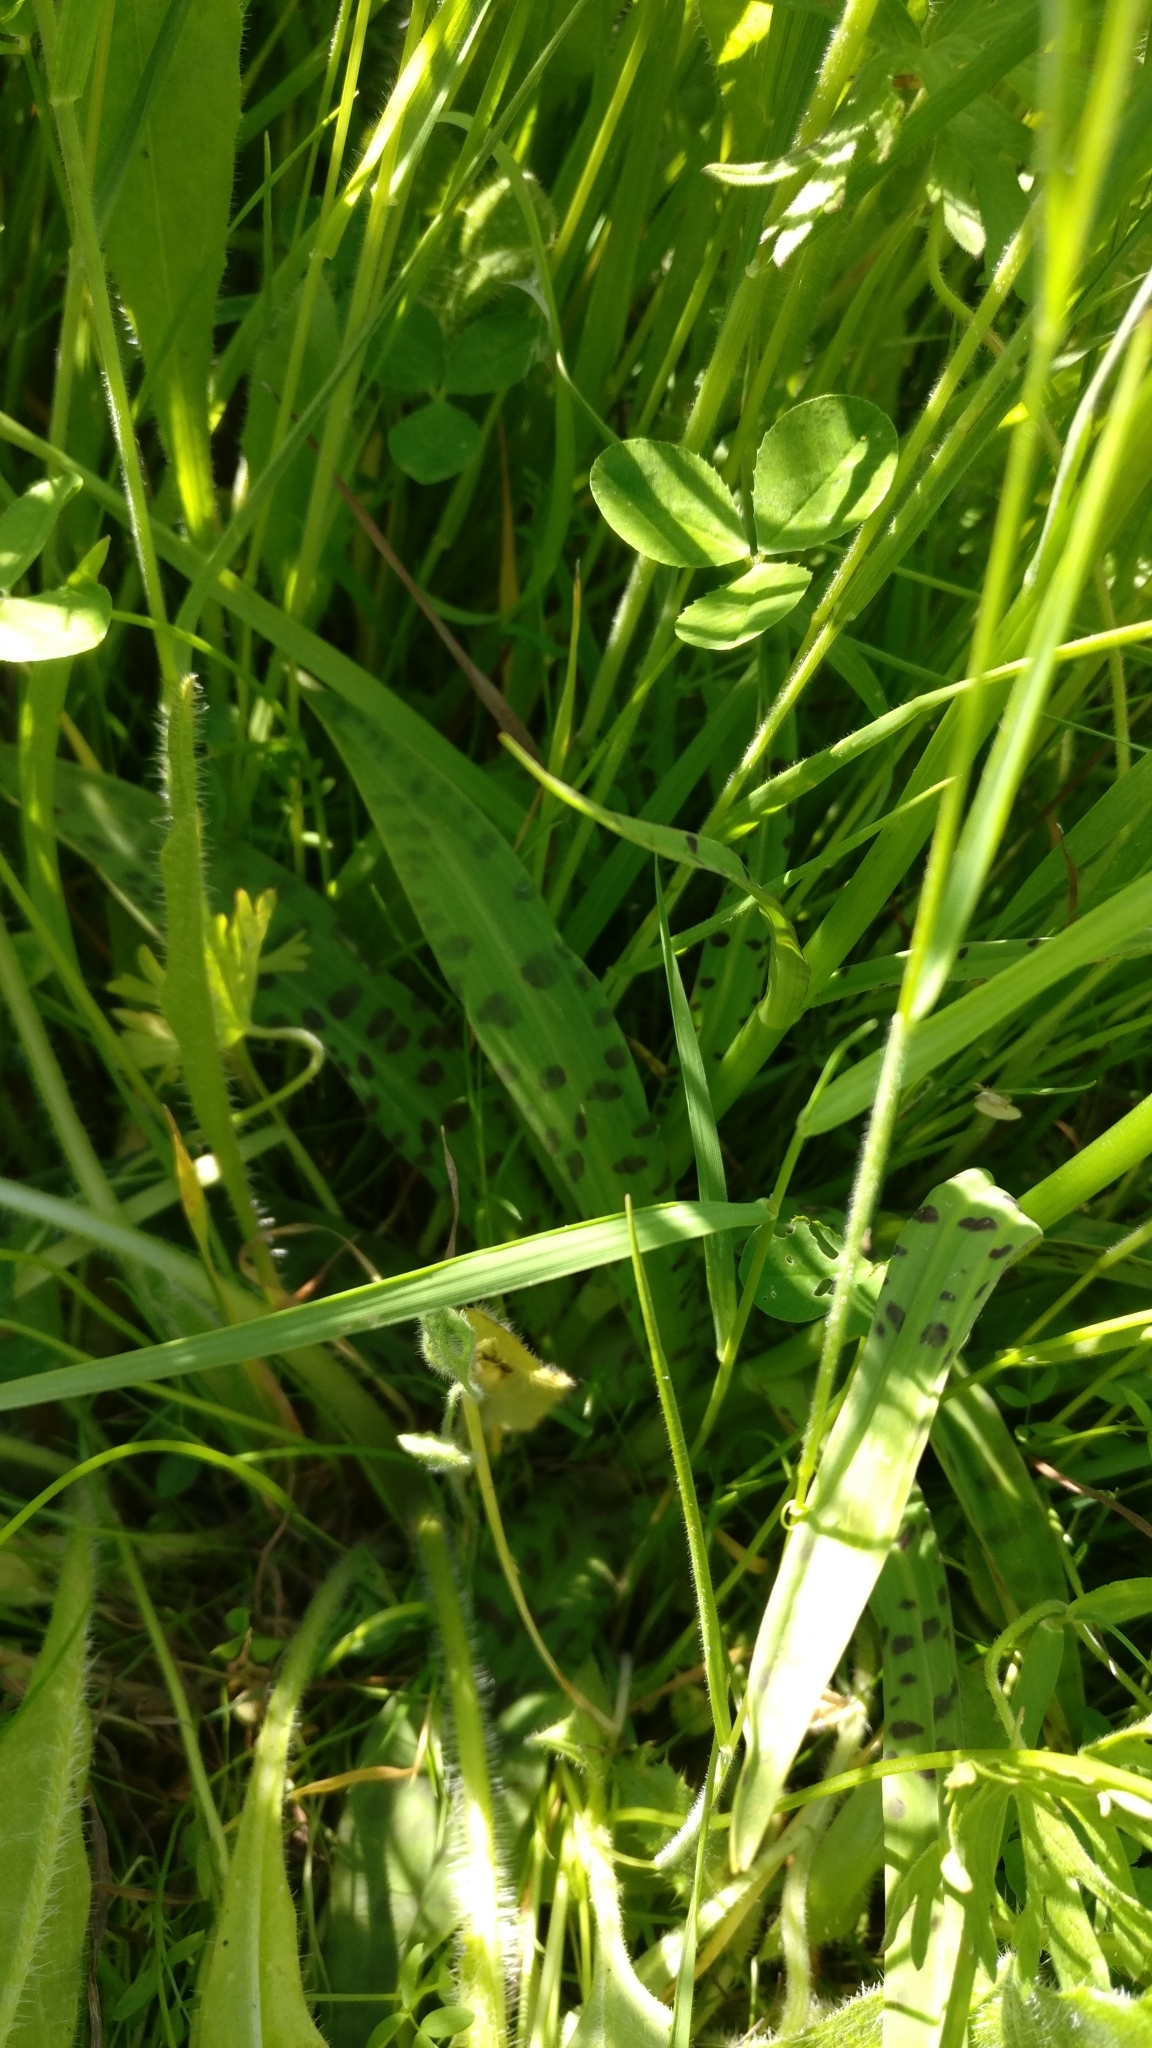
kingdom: Plantae
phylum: Tracheophyta
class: Liliopsida
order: Asparagales
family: Orchidaceae
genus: Dactylorhiza
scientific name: Dactylorhiza maculata
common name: Heath spotted-orchid
